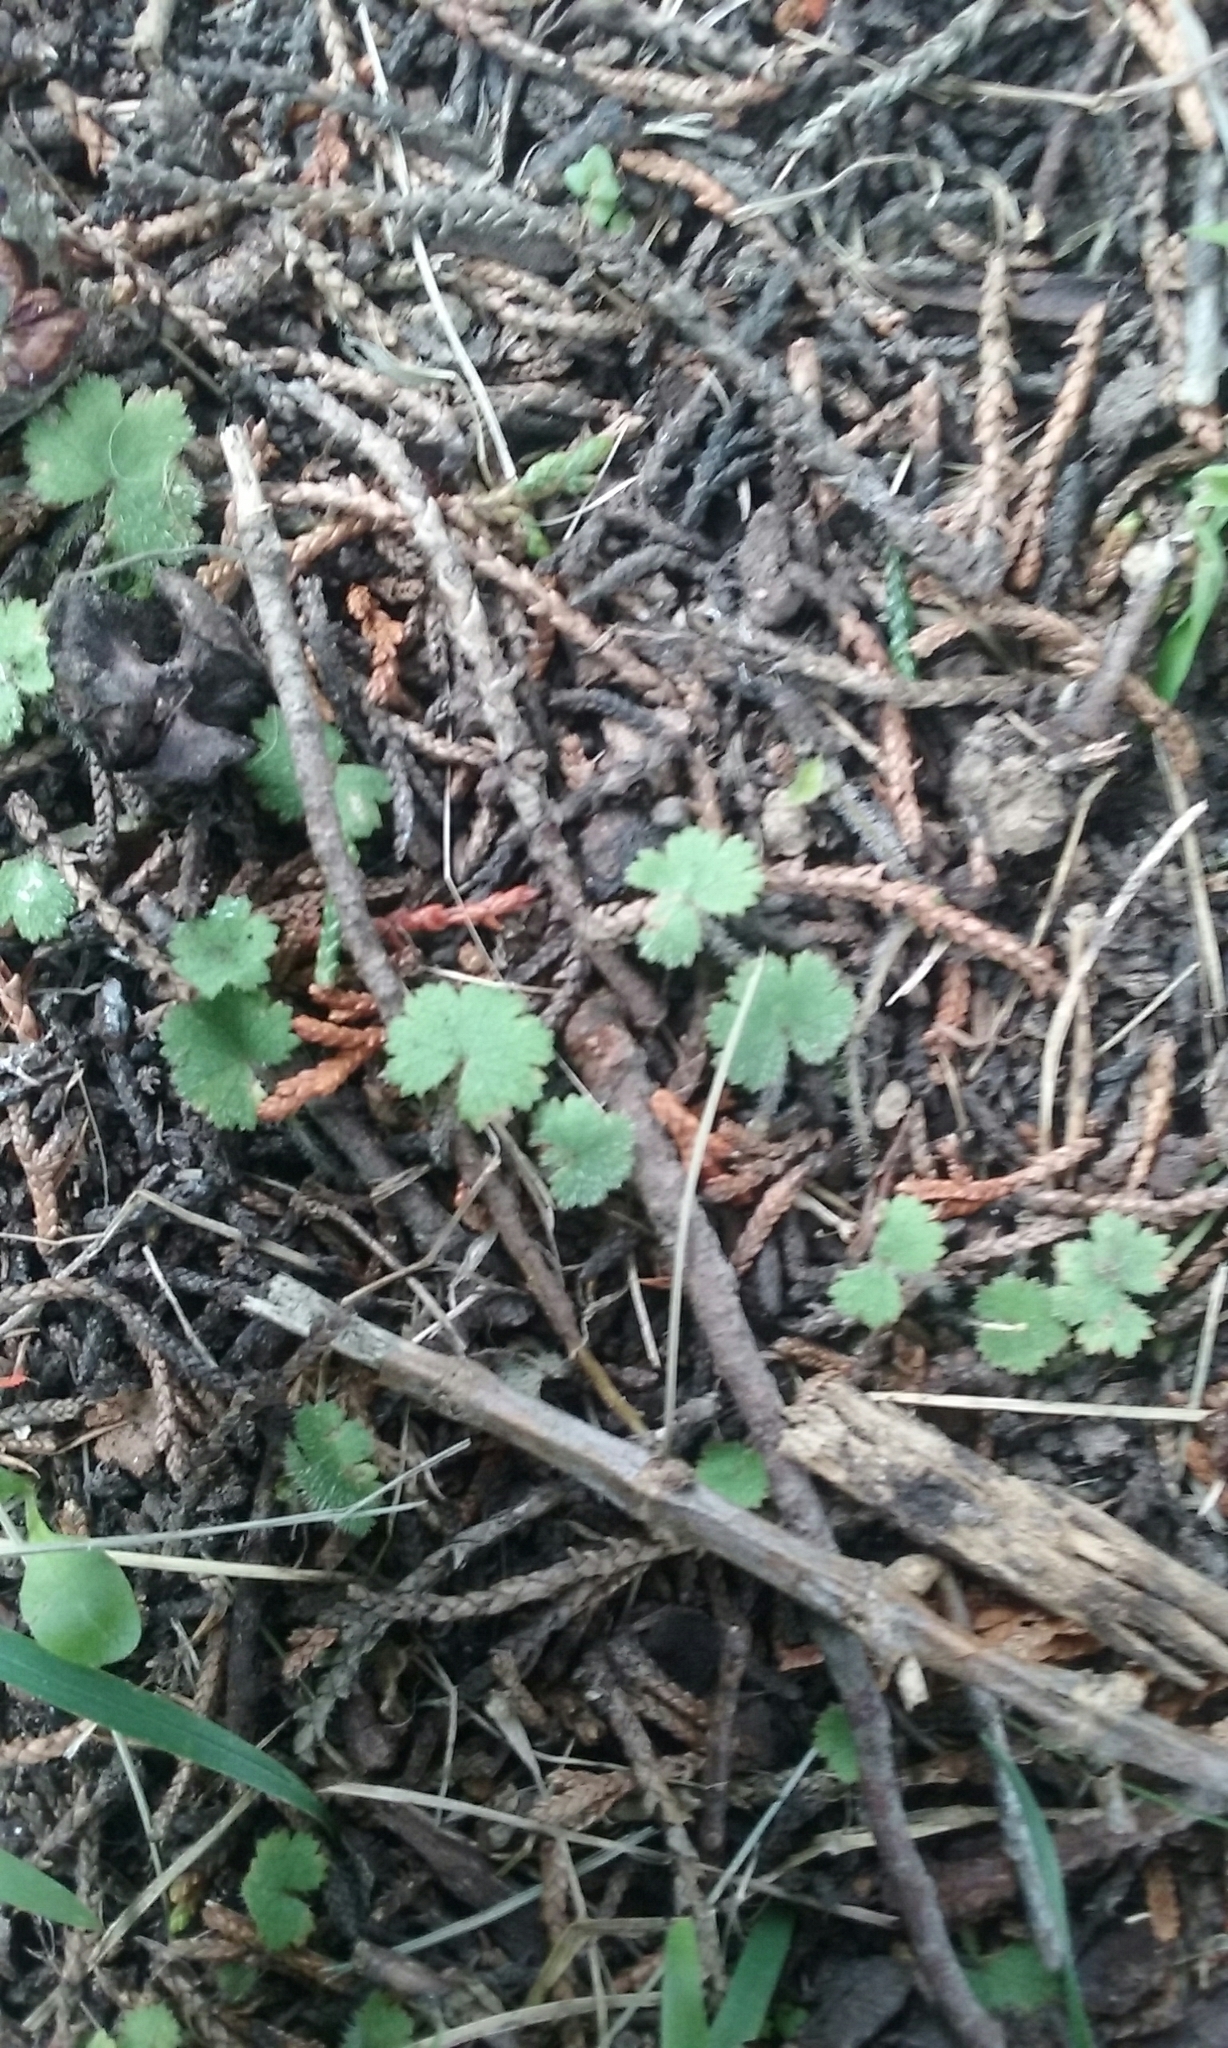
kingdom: Plantae
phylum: Tracheophyta
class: Magnoliopsida
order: Apiales
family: Araliaceae
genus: Hydrocotyle
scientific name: Hydrocotyle moschata
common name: Hairy pennywort
